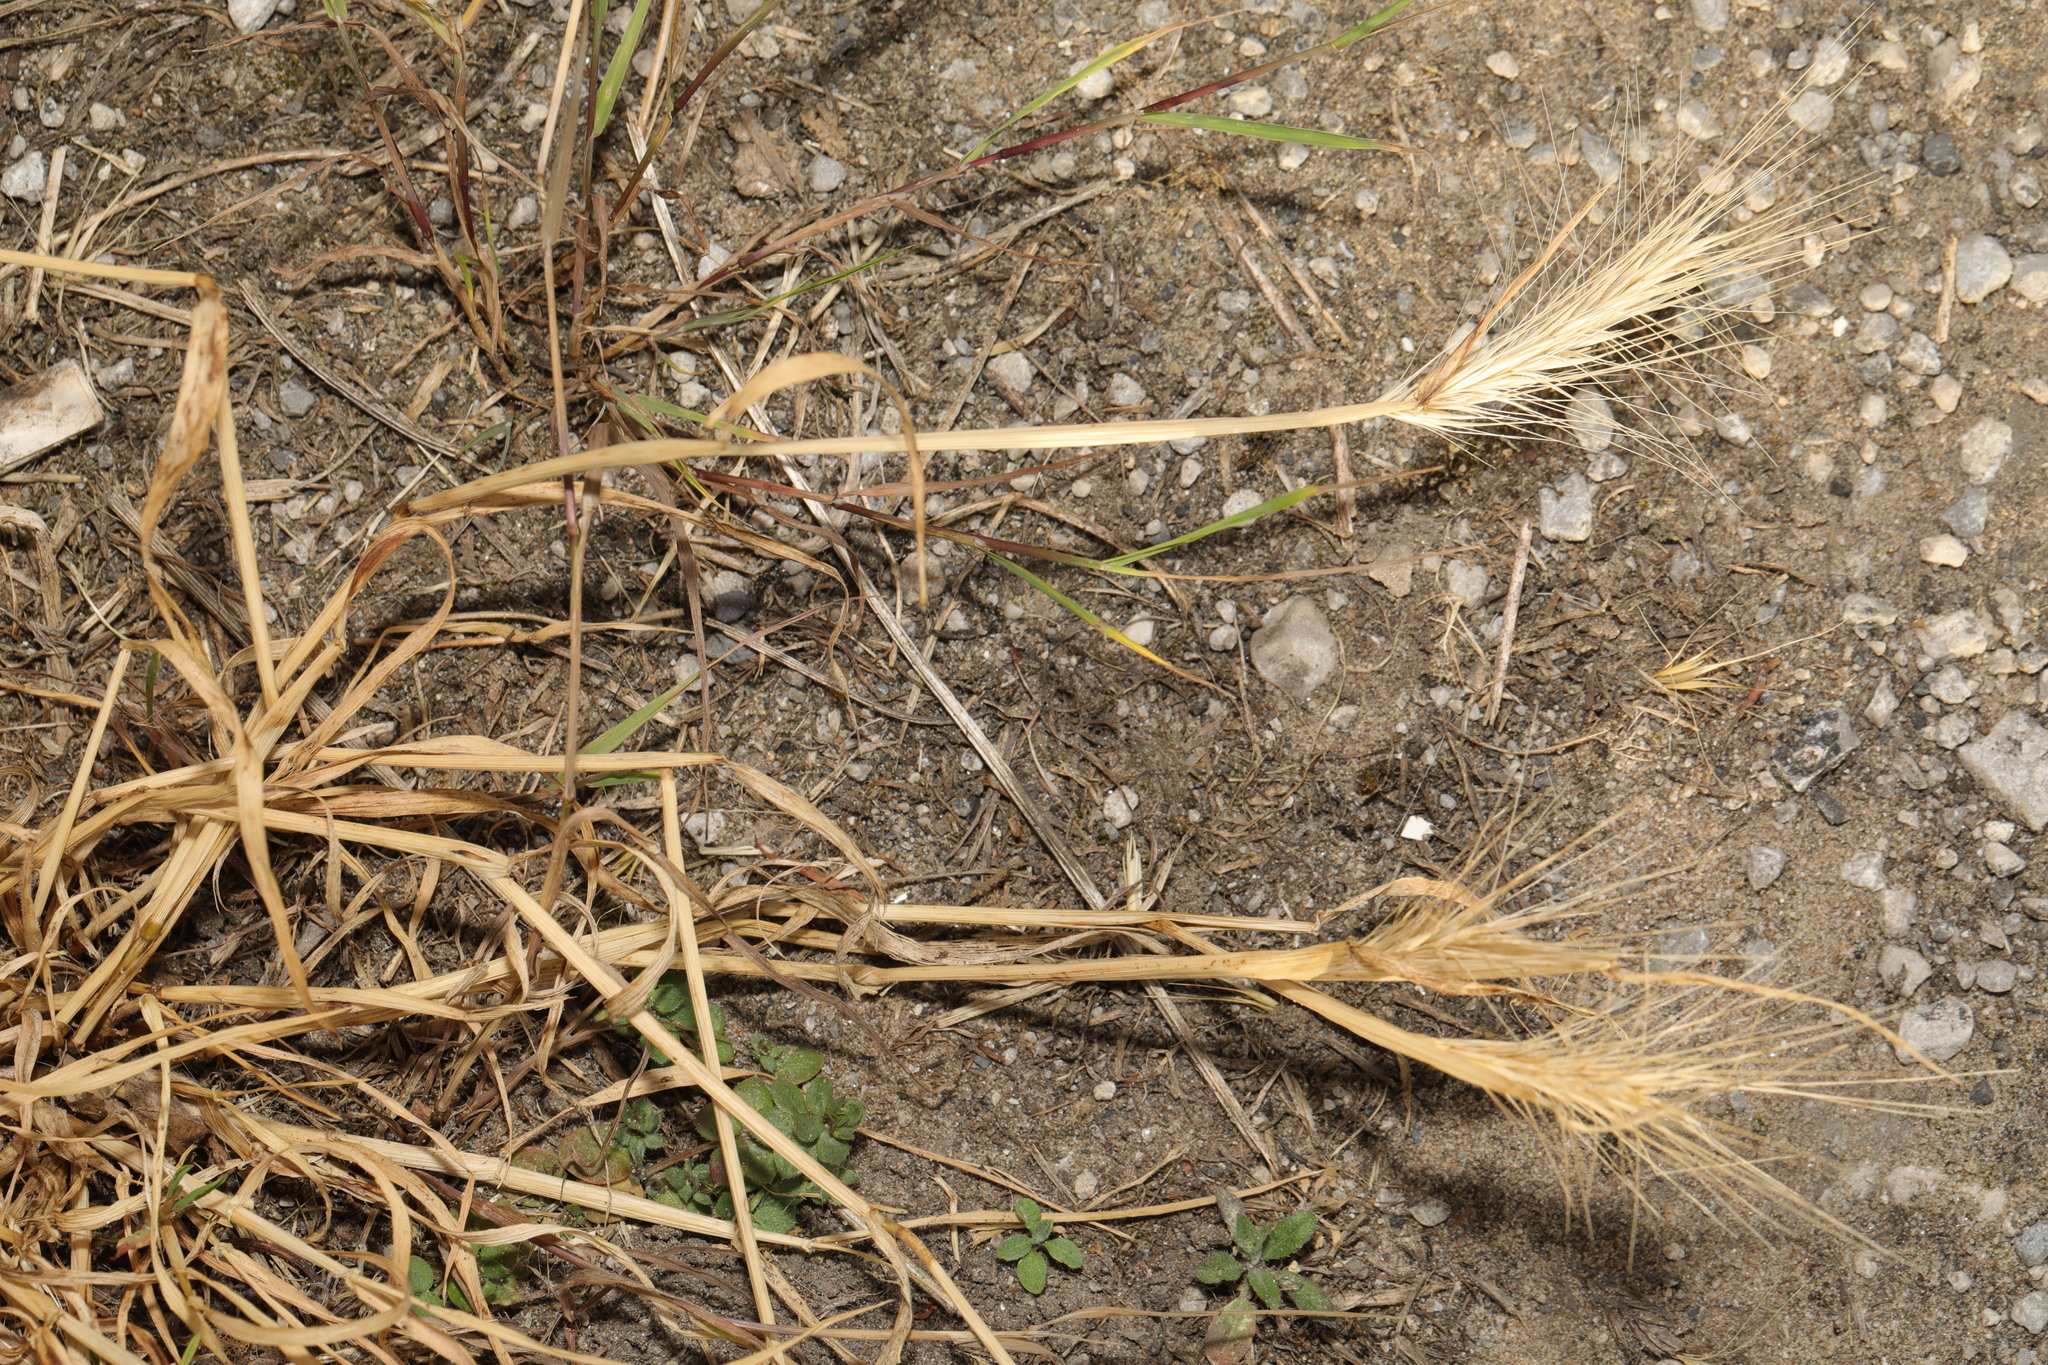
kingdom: Plantae
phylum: Tracheophyta
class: Liliopsida
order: Poales
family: Poaceae
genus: Hordeum
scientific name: Hordeum murinum
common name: Wall barley
